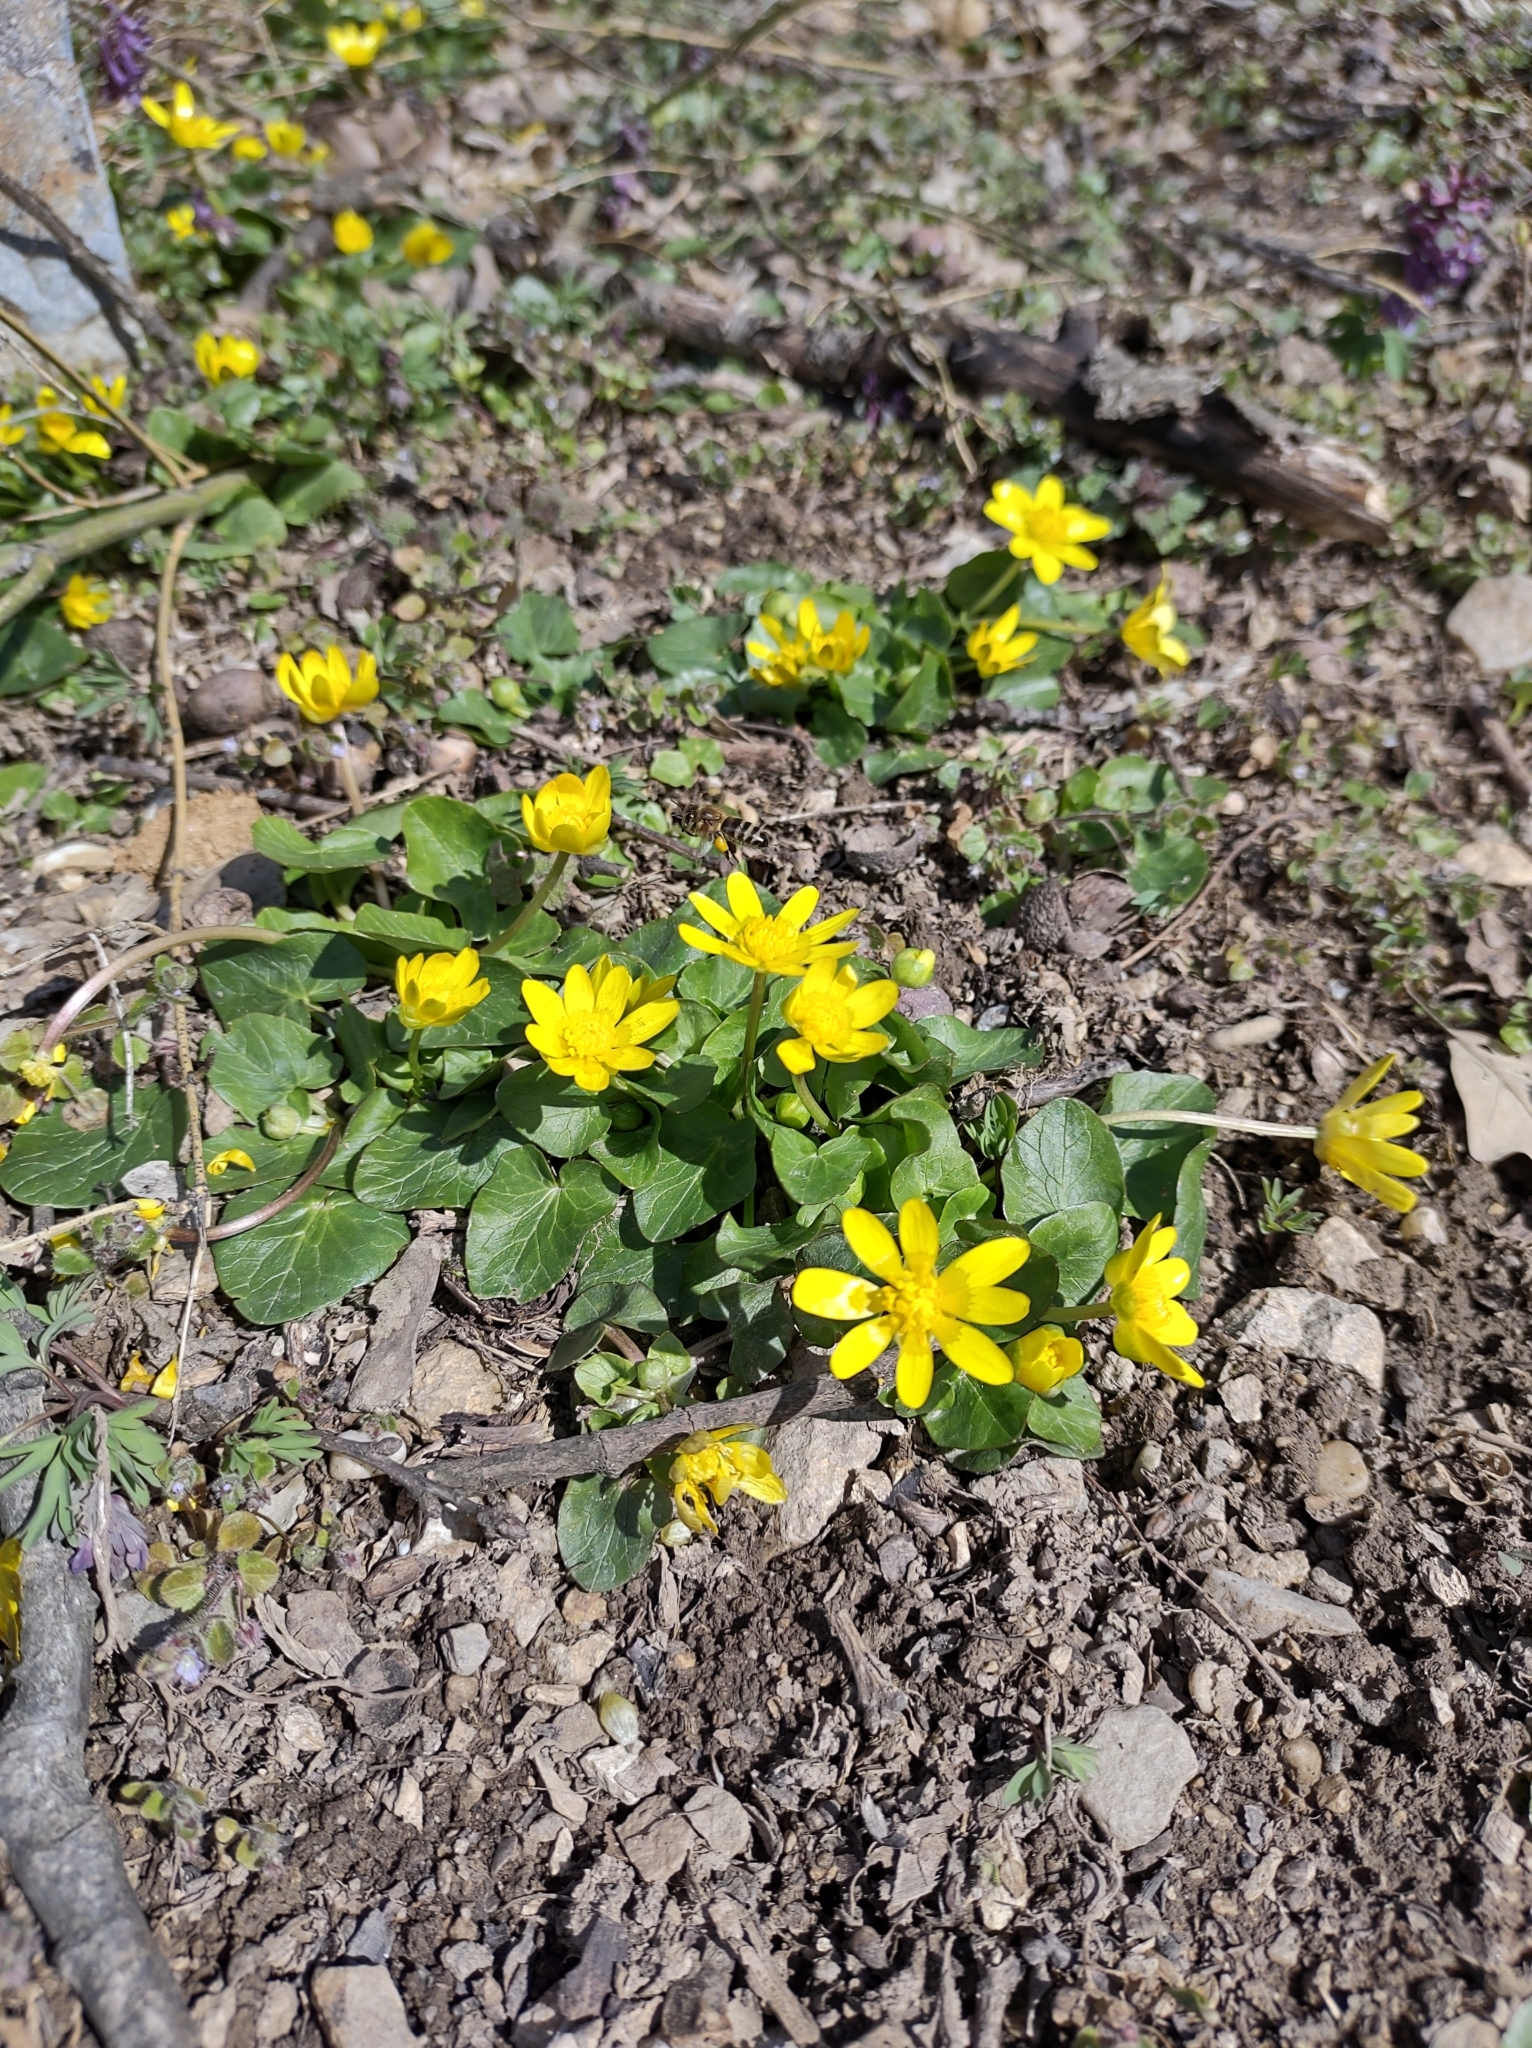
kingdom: Plantae
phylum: Tracheophyta
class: Magnoliopsida
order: Ranunculales
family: Ranunculaceae
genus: Ficaria
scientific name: Ficaria verna
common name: Lesser celandine
